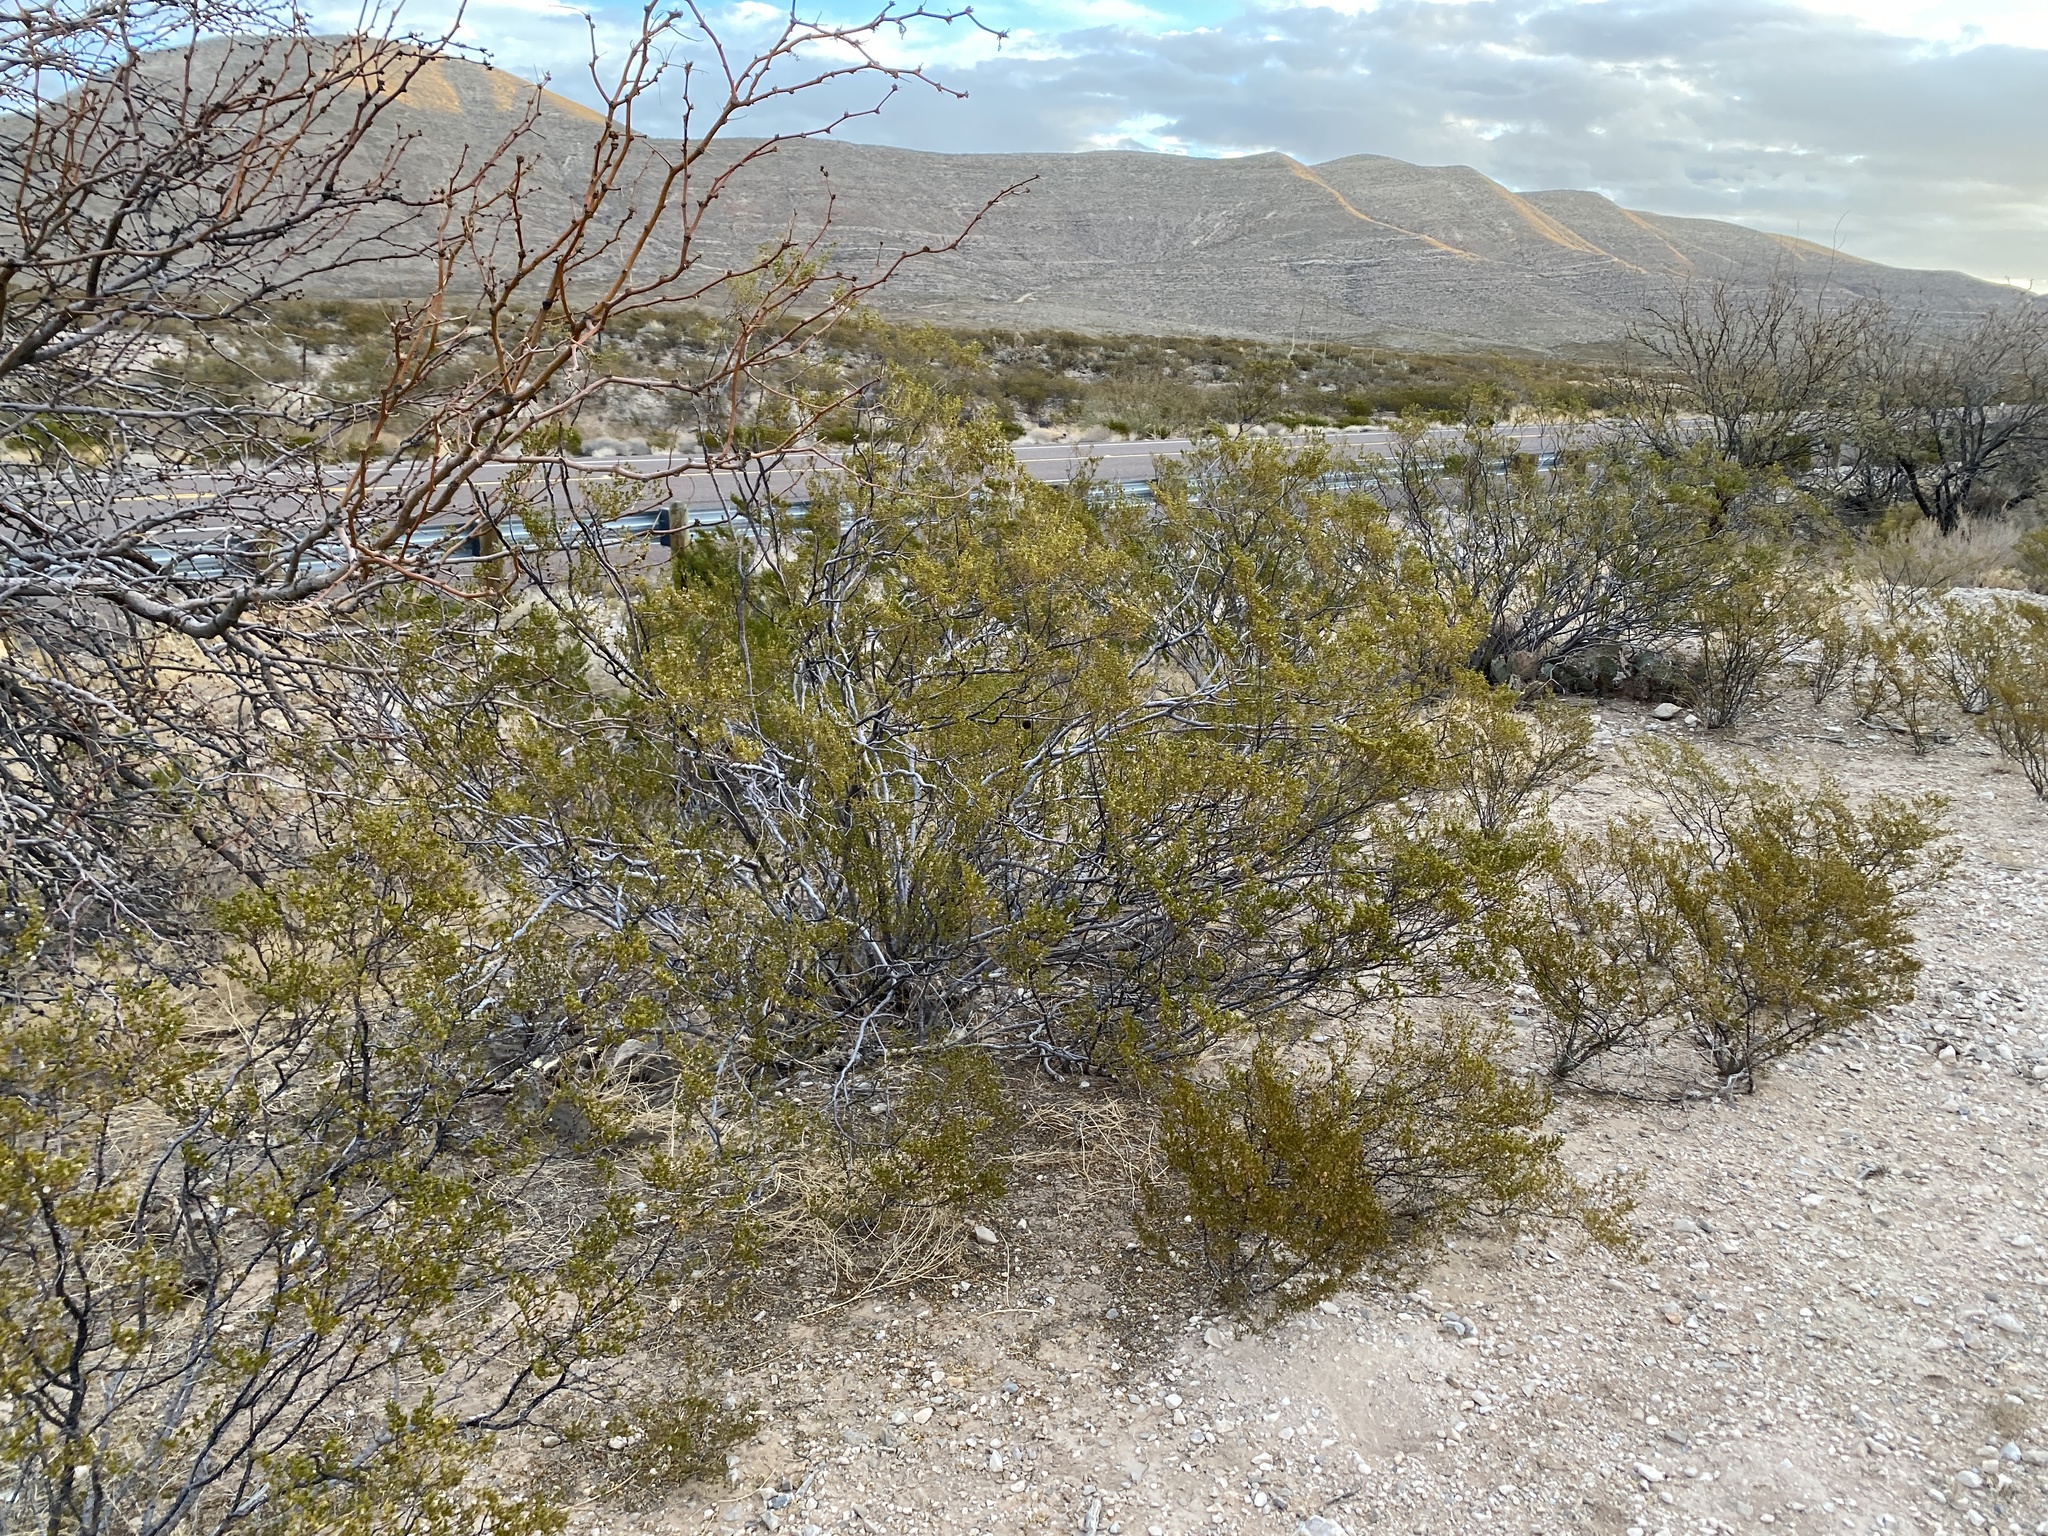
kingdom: Plantae
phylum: Tracheophyta
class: Magnoliopsida
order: Zygophyllales
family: Zygophyllaceae
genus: Larrea
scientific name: Larrea tridentata
